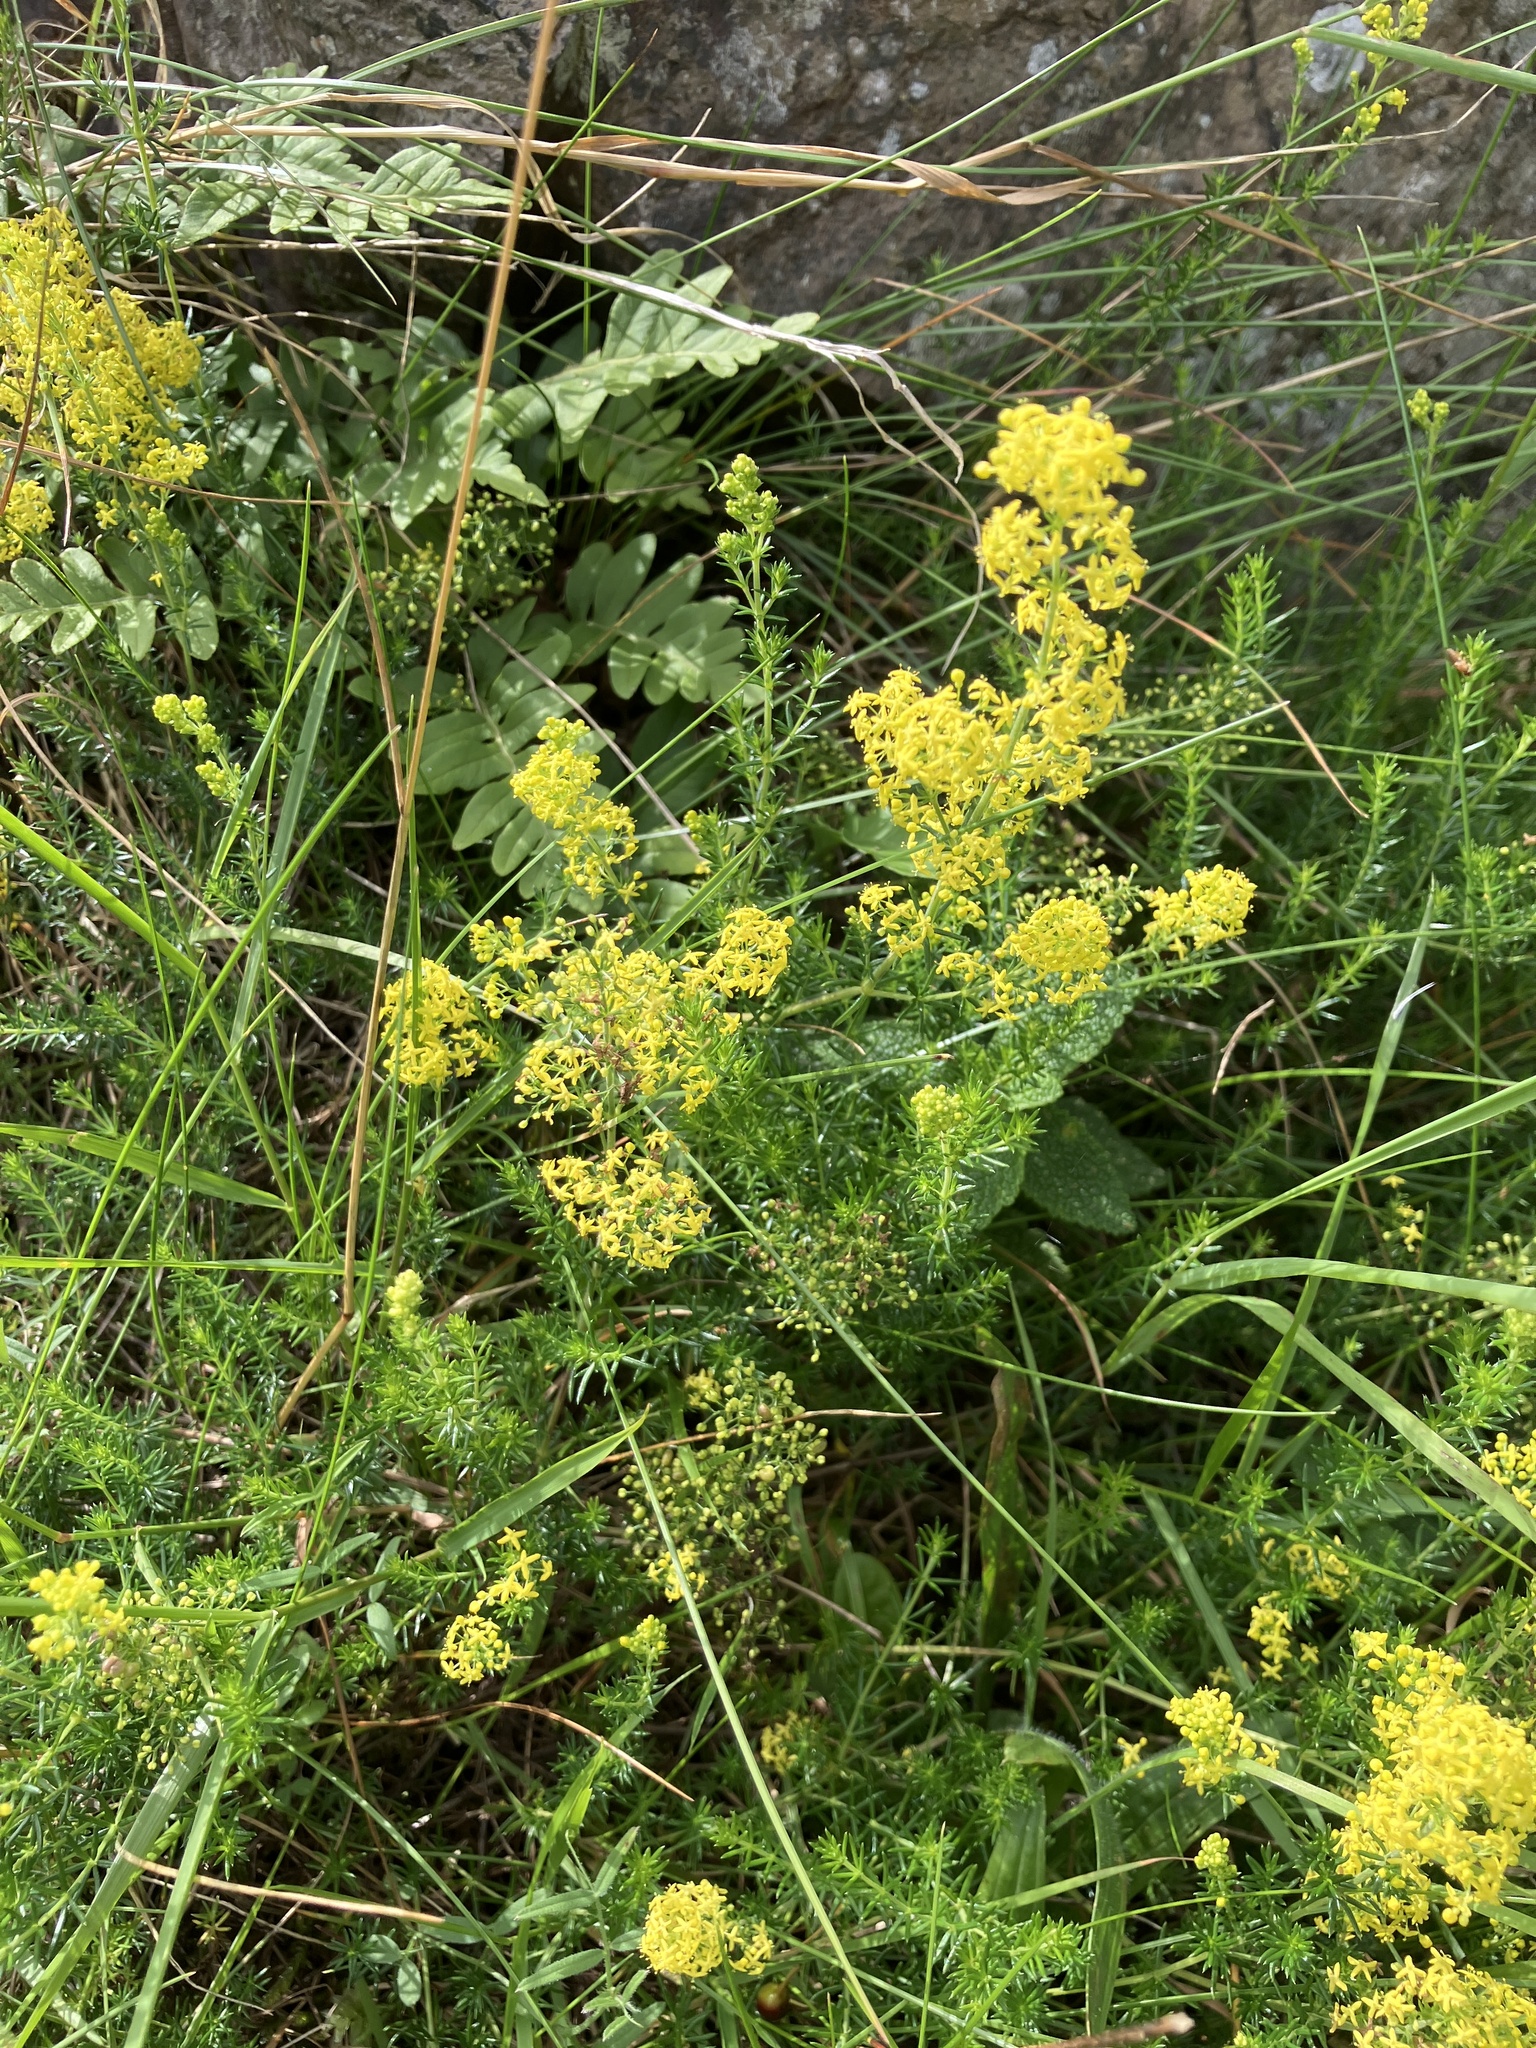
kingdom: Plantae
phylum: Tracheophyta
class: Magnoliopsida
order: Gentianales
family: Rubiaceae
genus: Galium
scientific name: Galium verum
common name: Lady's bedstraw
